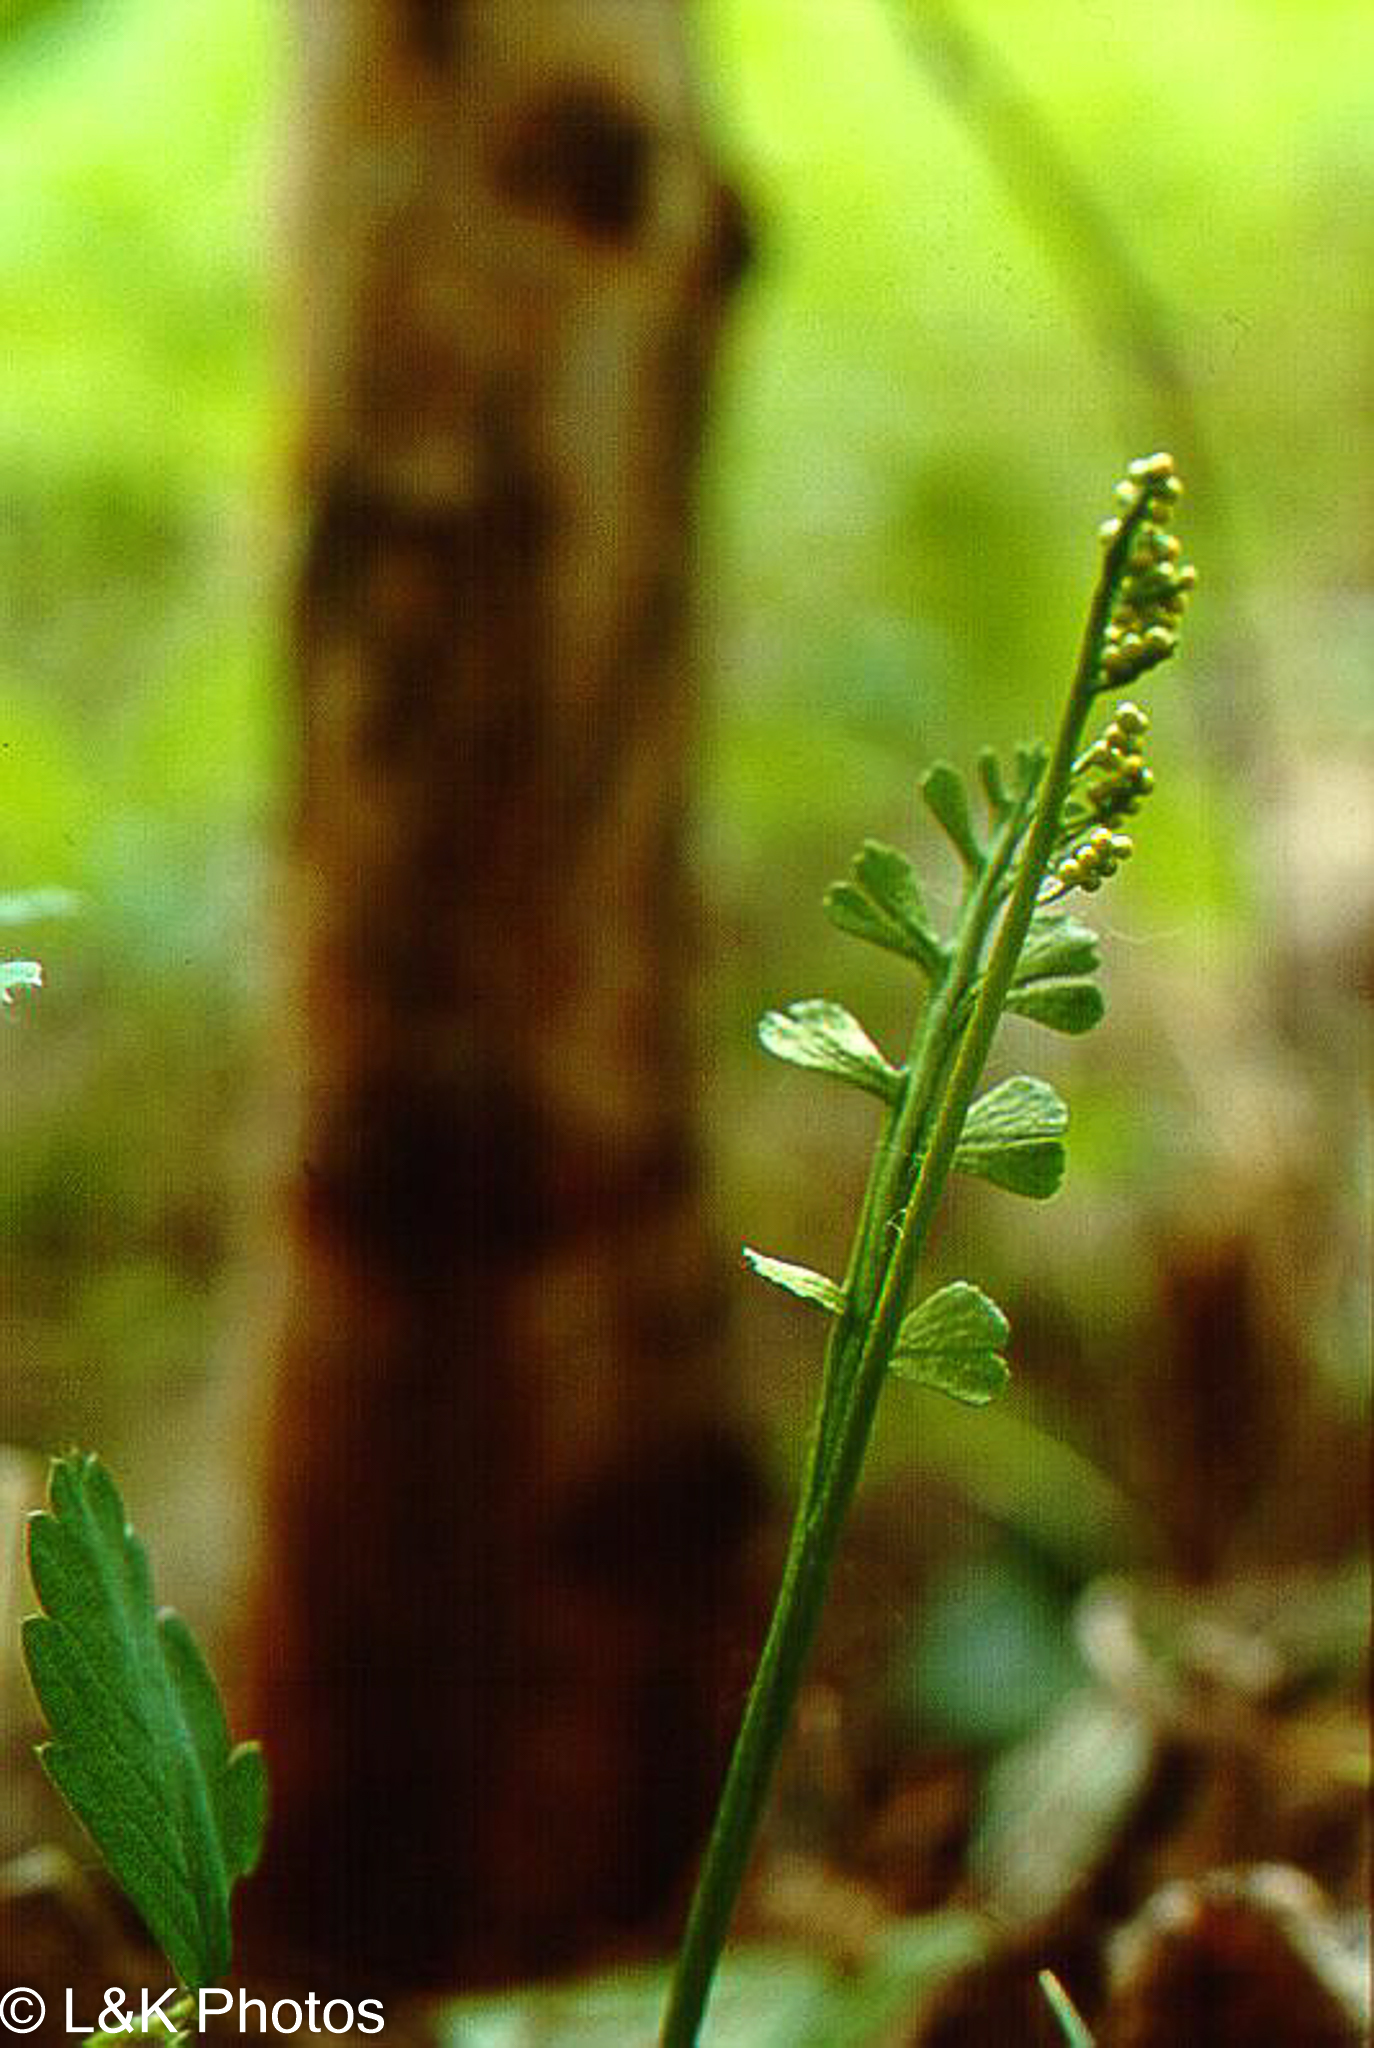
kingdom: Plantae
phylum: Tracheophyta
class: Polypodiopsida
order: Ophioglossales
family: Ophioglossaceae
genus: Botrychium
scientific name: Botrychium crenulatum
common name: Crenulate moonwort
